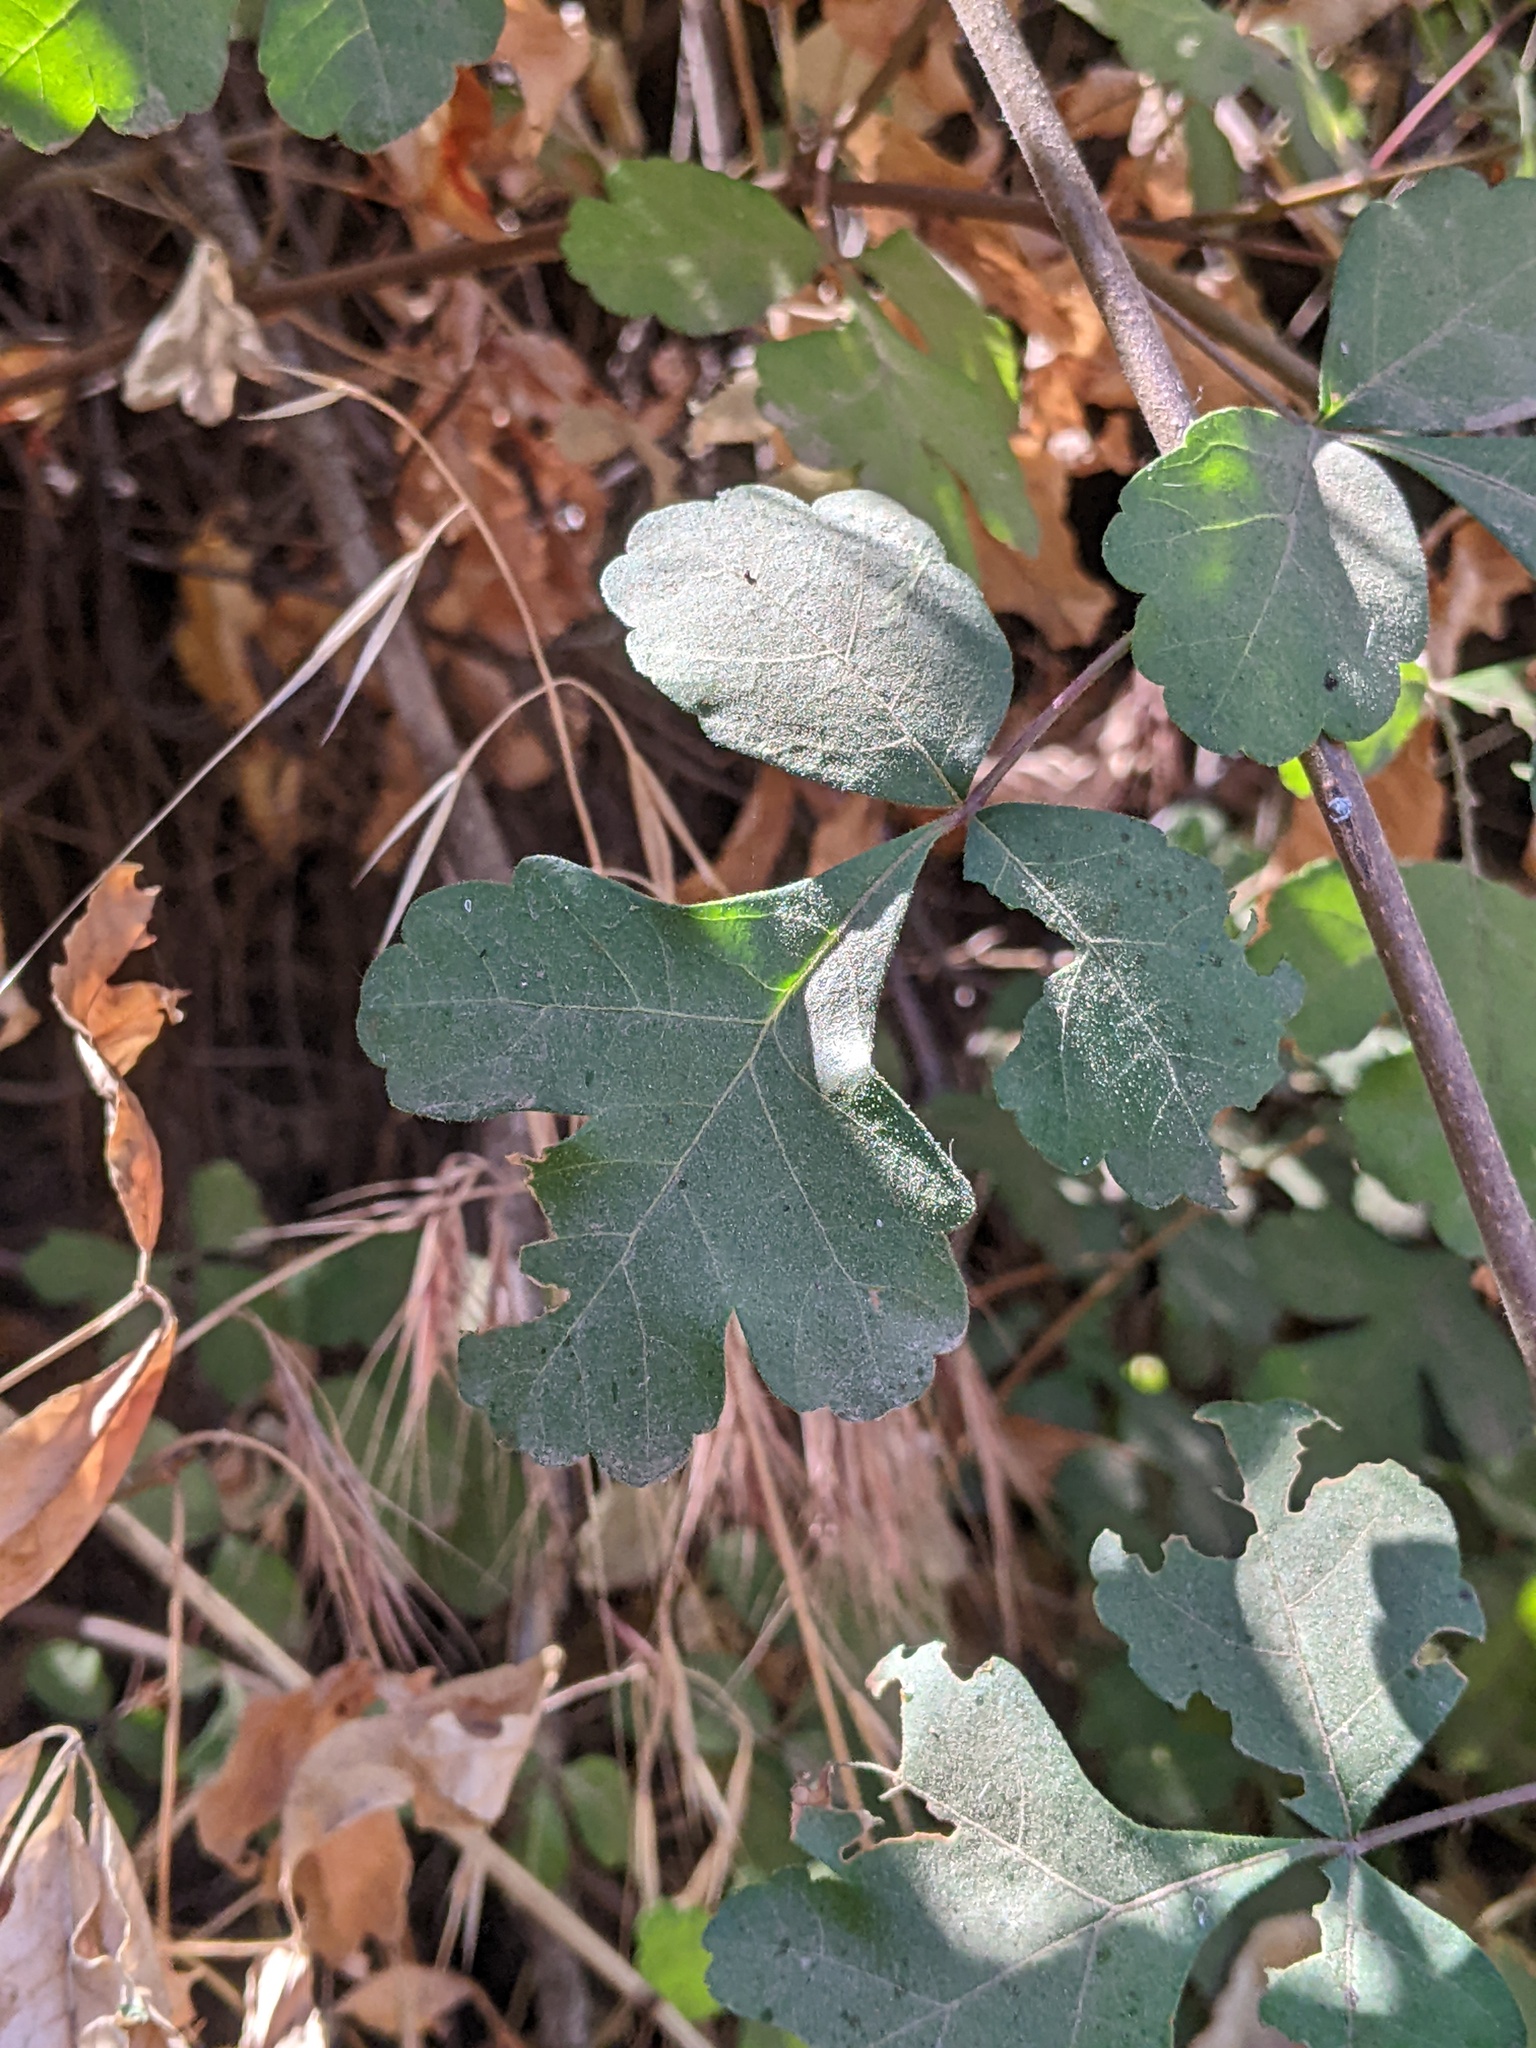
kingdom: Plantae
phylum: Tracheophyta
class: Magnoliopsida
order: Sapindales
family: Anacardiaceae
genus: Rhus
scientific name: Rhus aromatica
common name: Aromatic sumac
